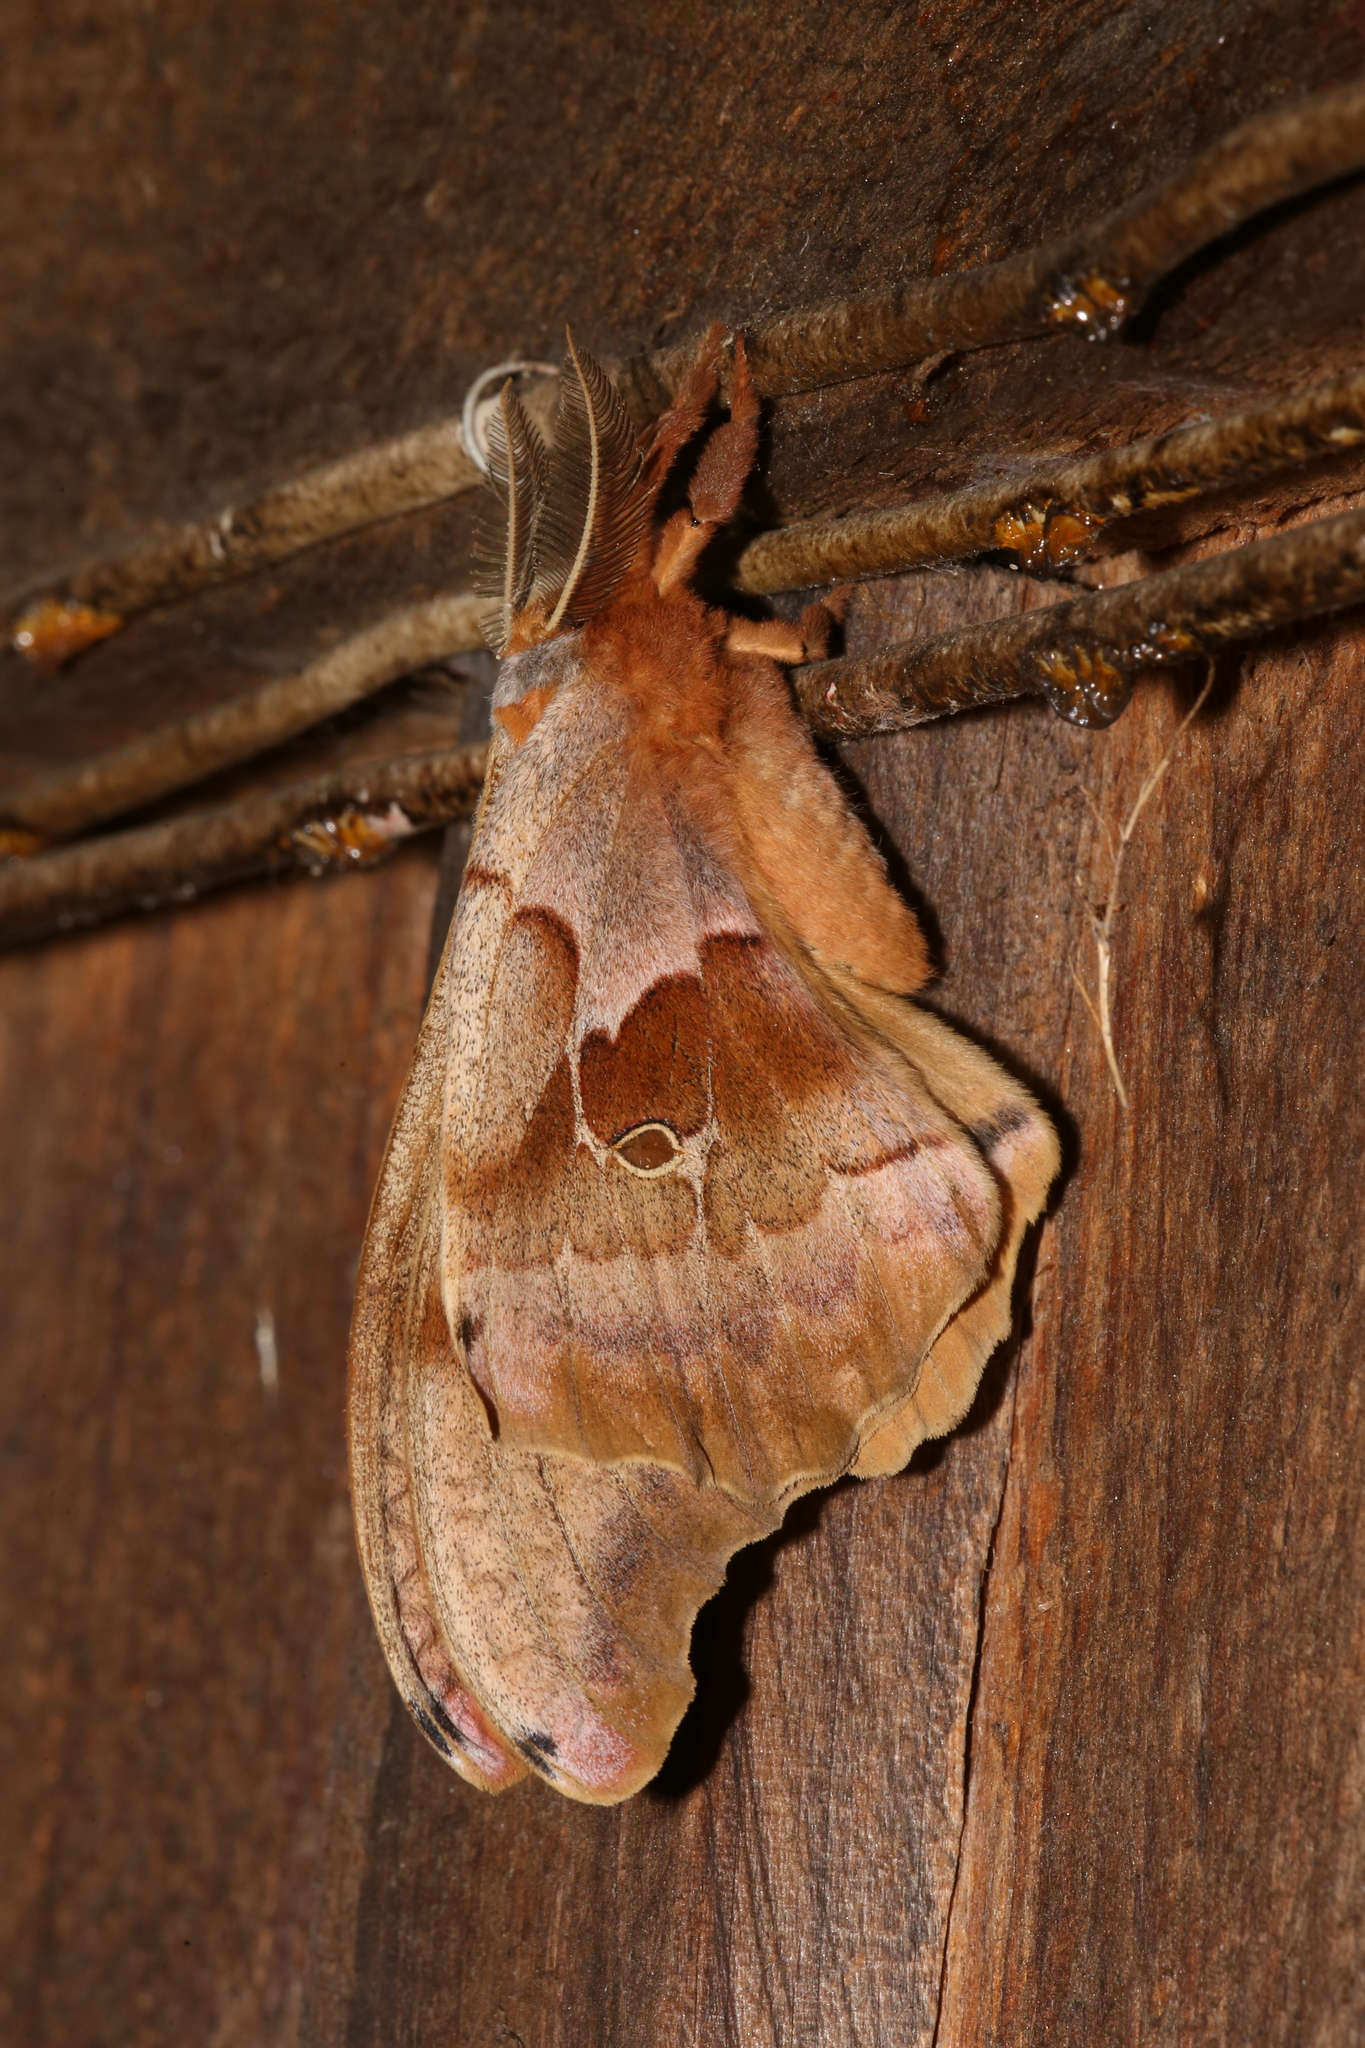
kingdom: Animalia
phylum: Arthropoda
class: Insecta
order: Lepidoptera
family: Saturniidae
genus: Antheraea
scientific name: Antheraea polyphemus
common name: Polyphemus moth
